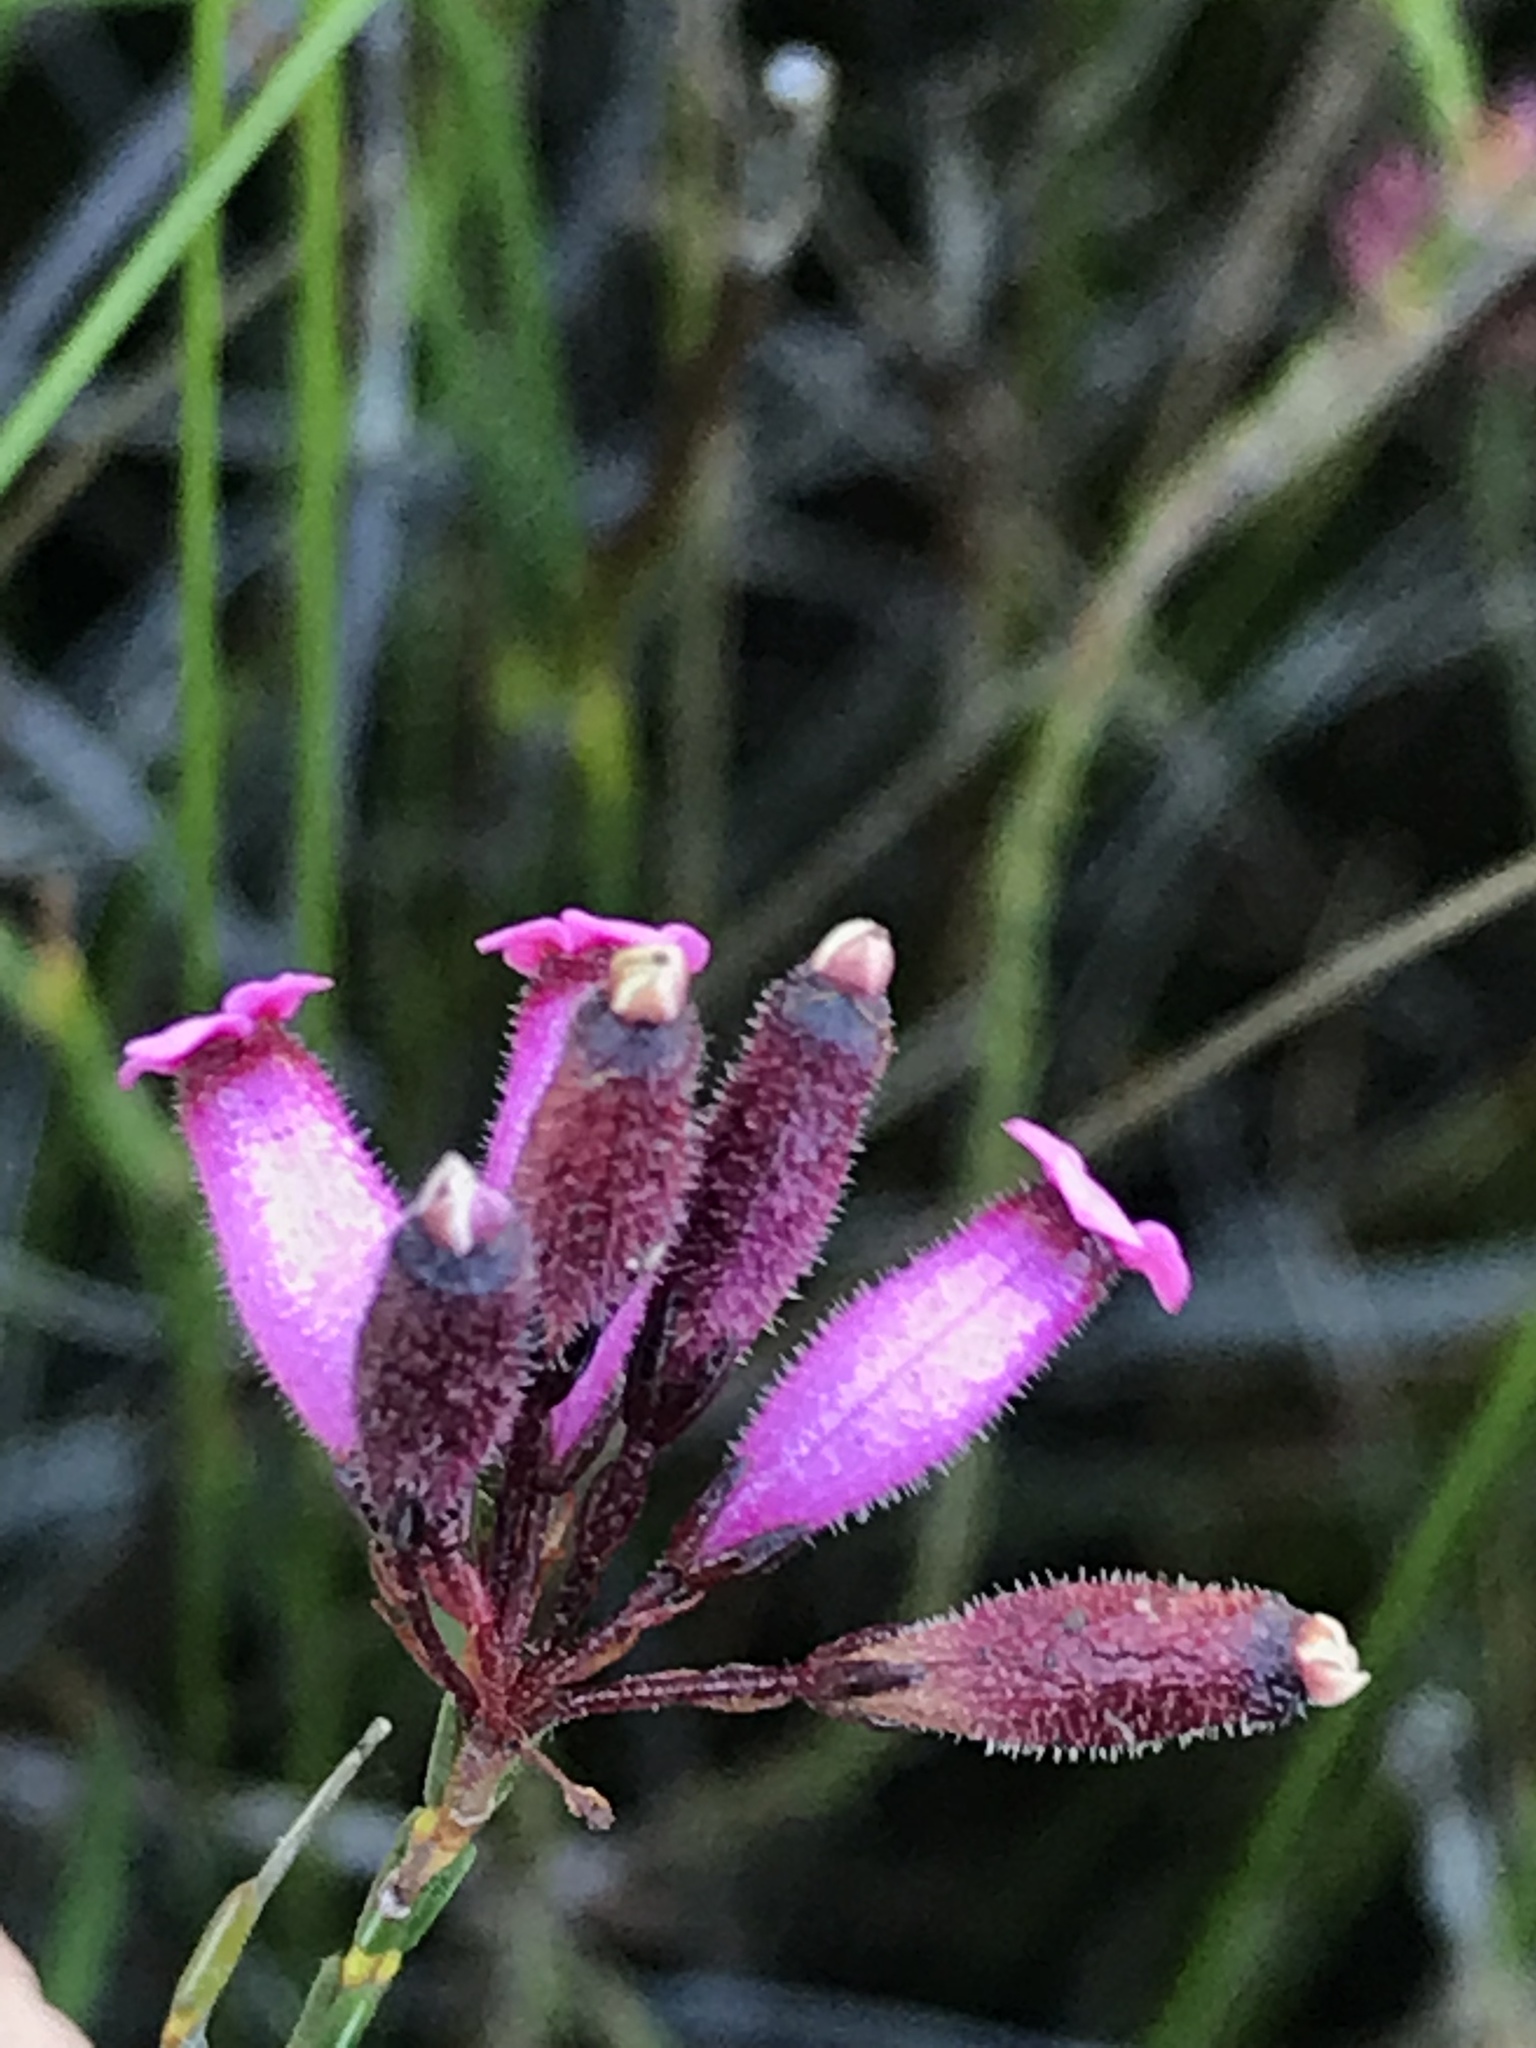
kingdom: Plantae
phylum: Tracheophyta
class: Magnoliopsida
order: Ericales
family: Ericaceae
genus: Erica
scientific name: Erica cristata
